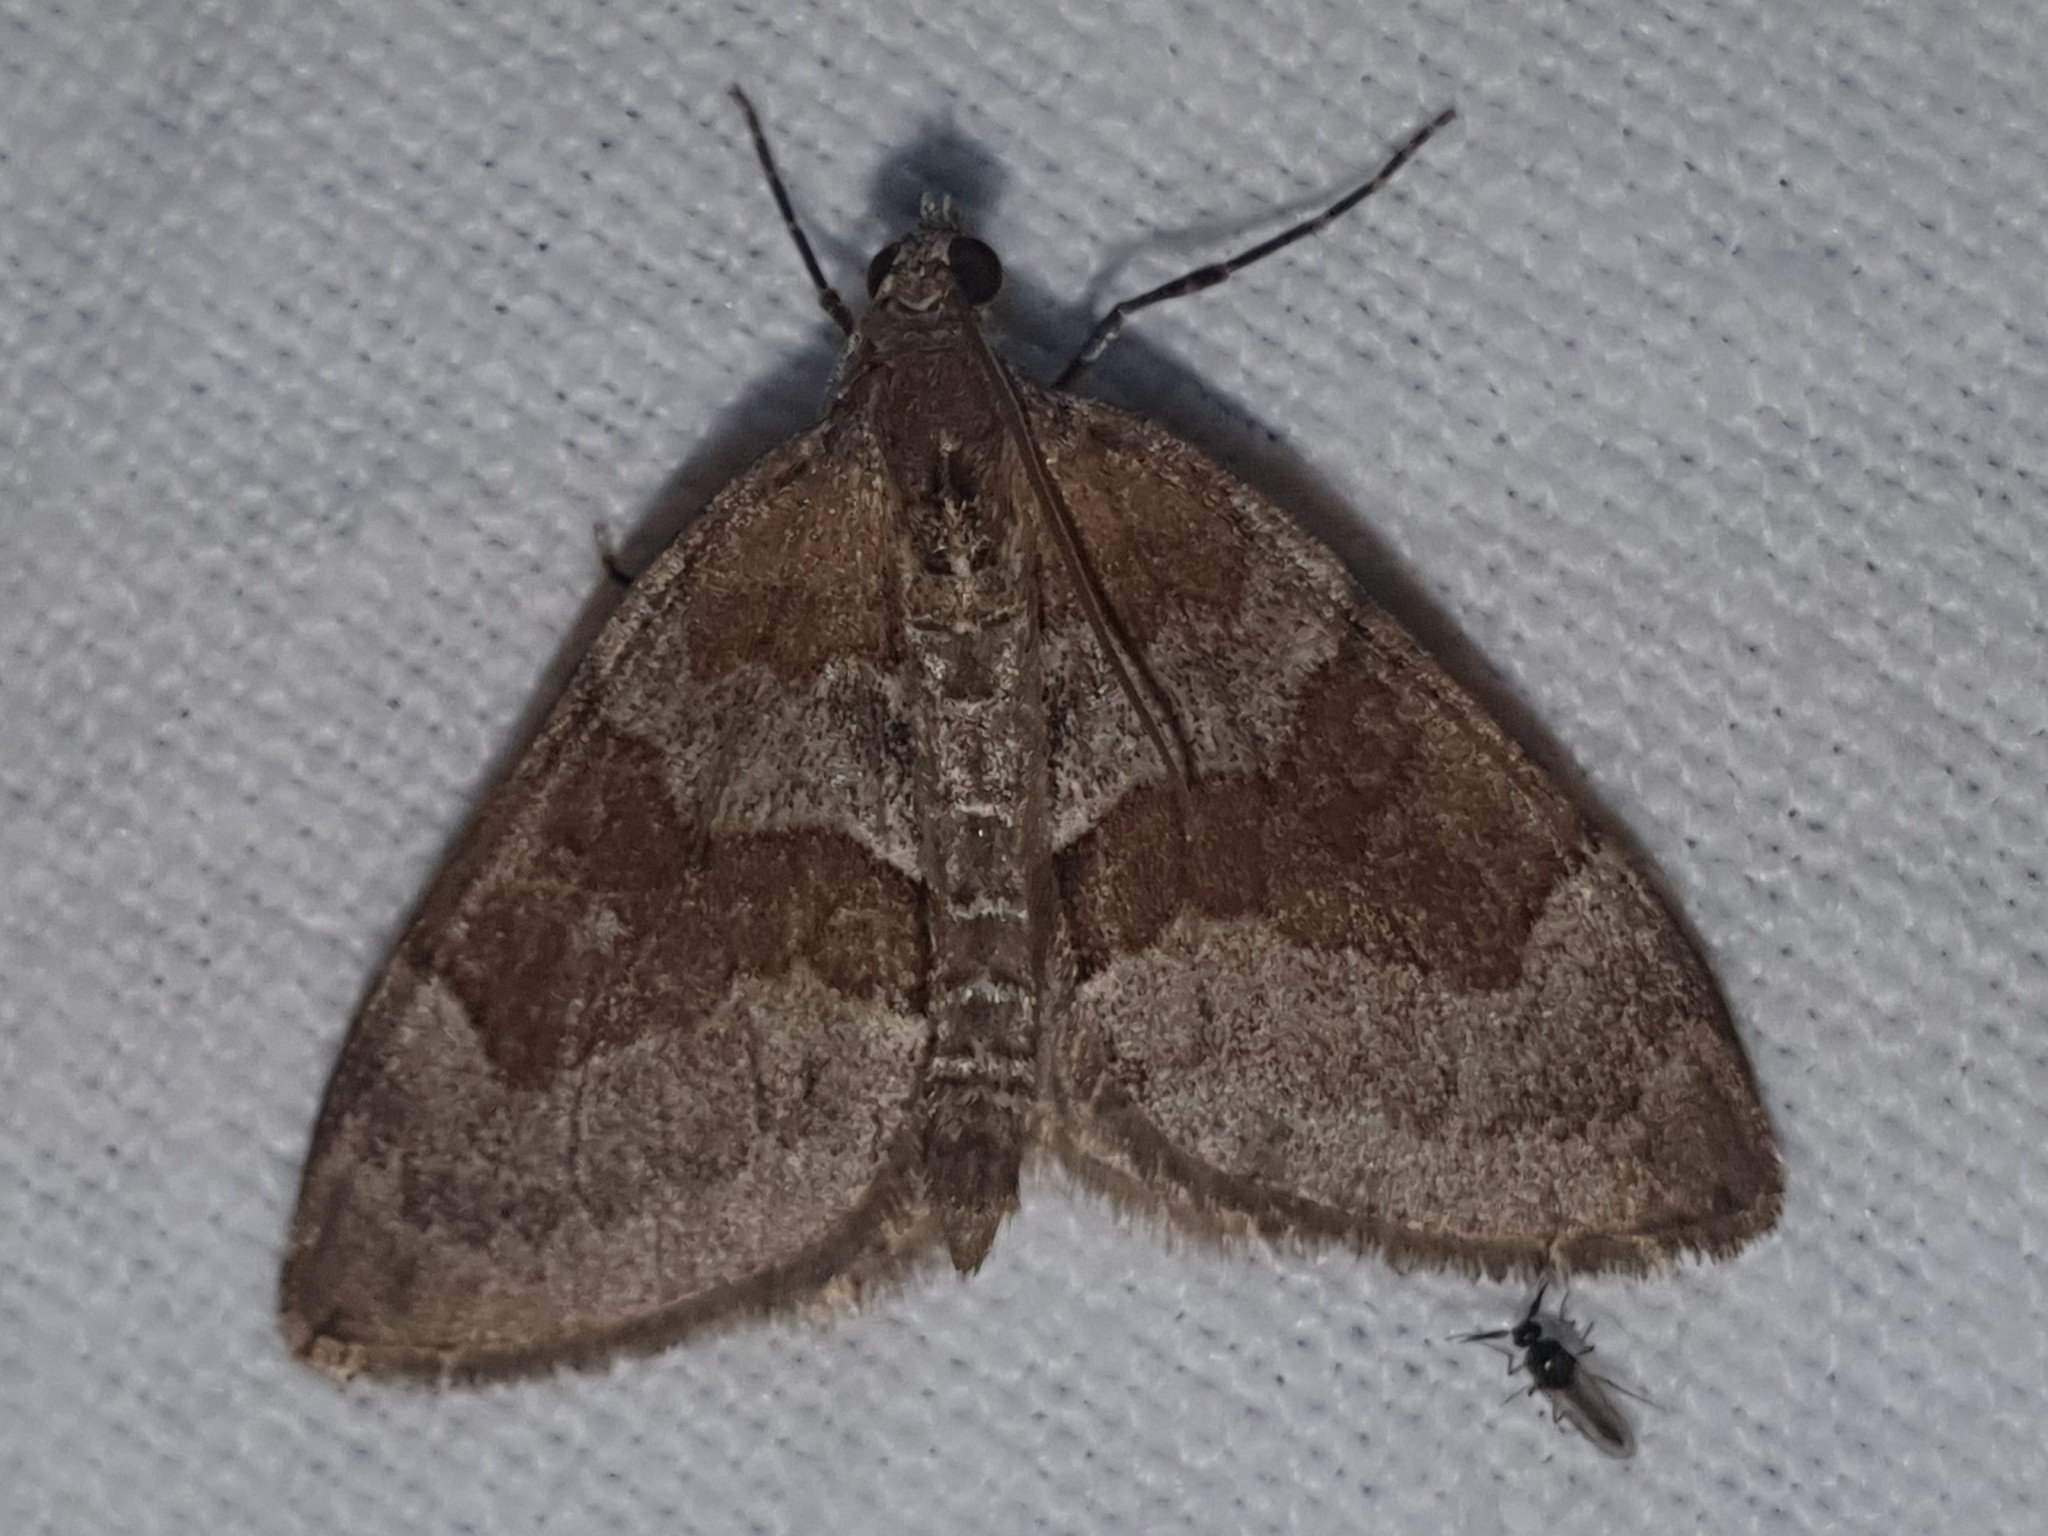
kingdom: Animalia
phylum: Arthropoda
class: Insecta
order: Lepidoptera
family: Geometridae
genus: Thera
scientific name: Thera obeliscata
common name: Grey pine carpet
